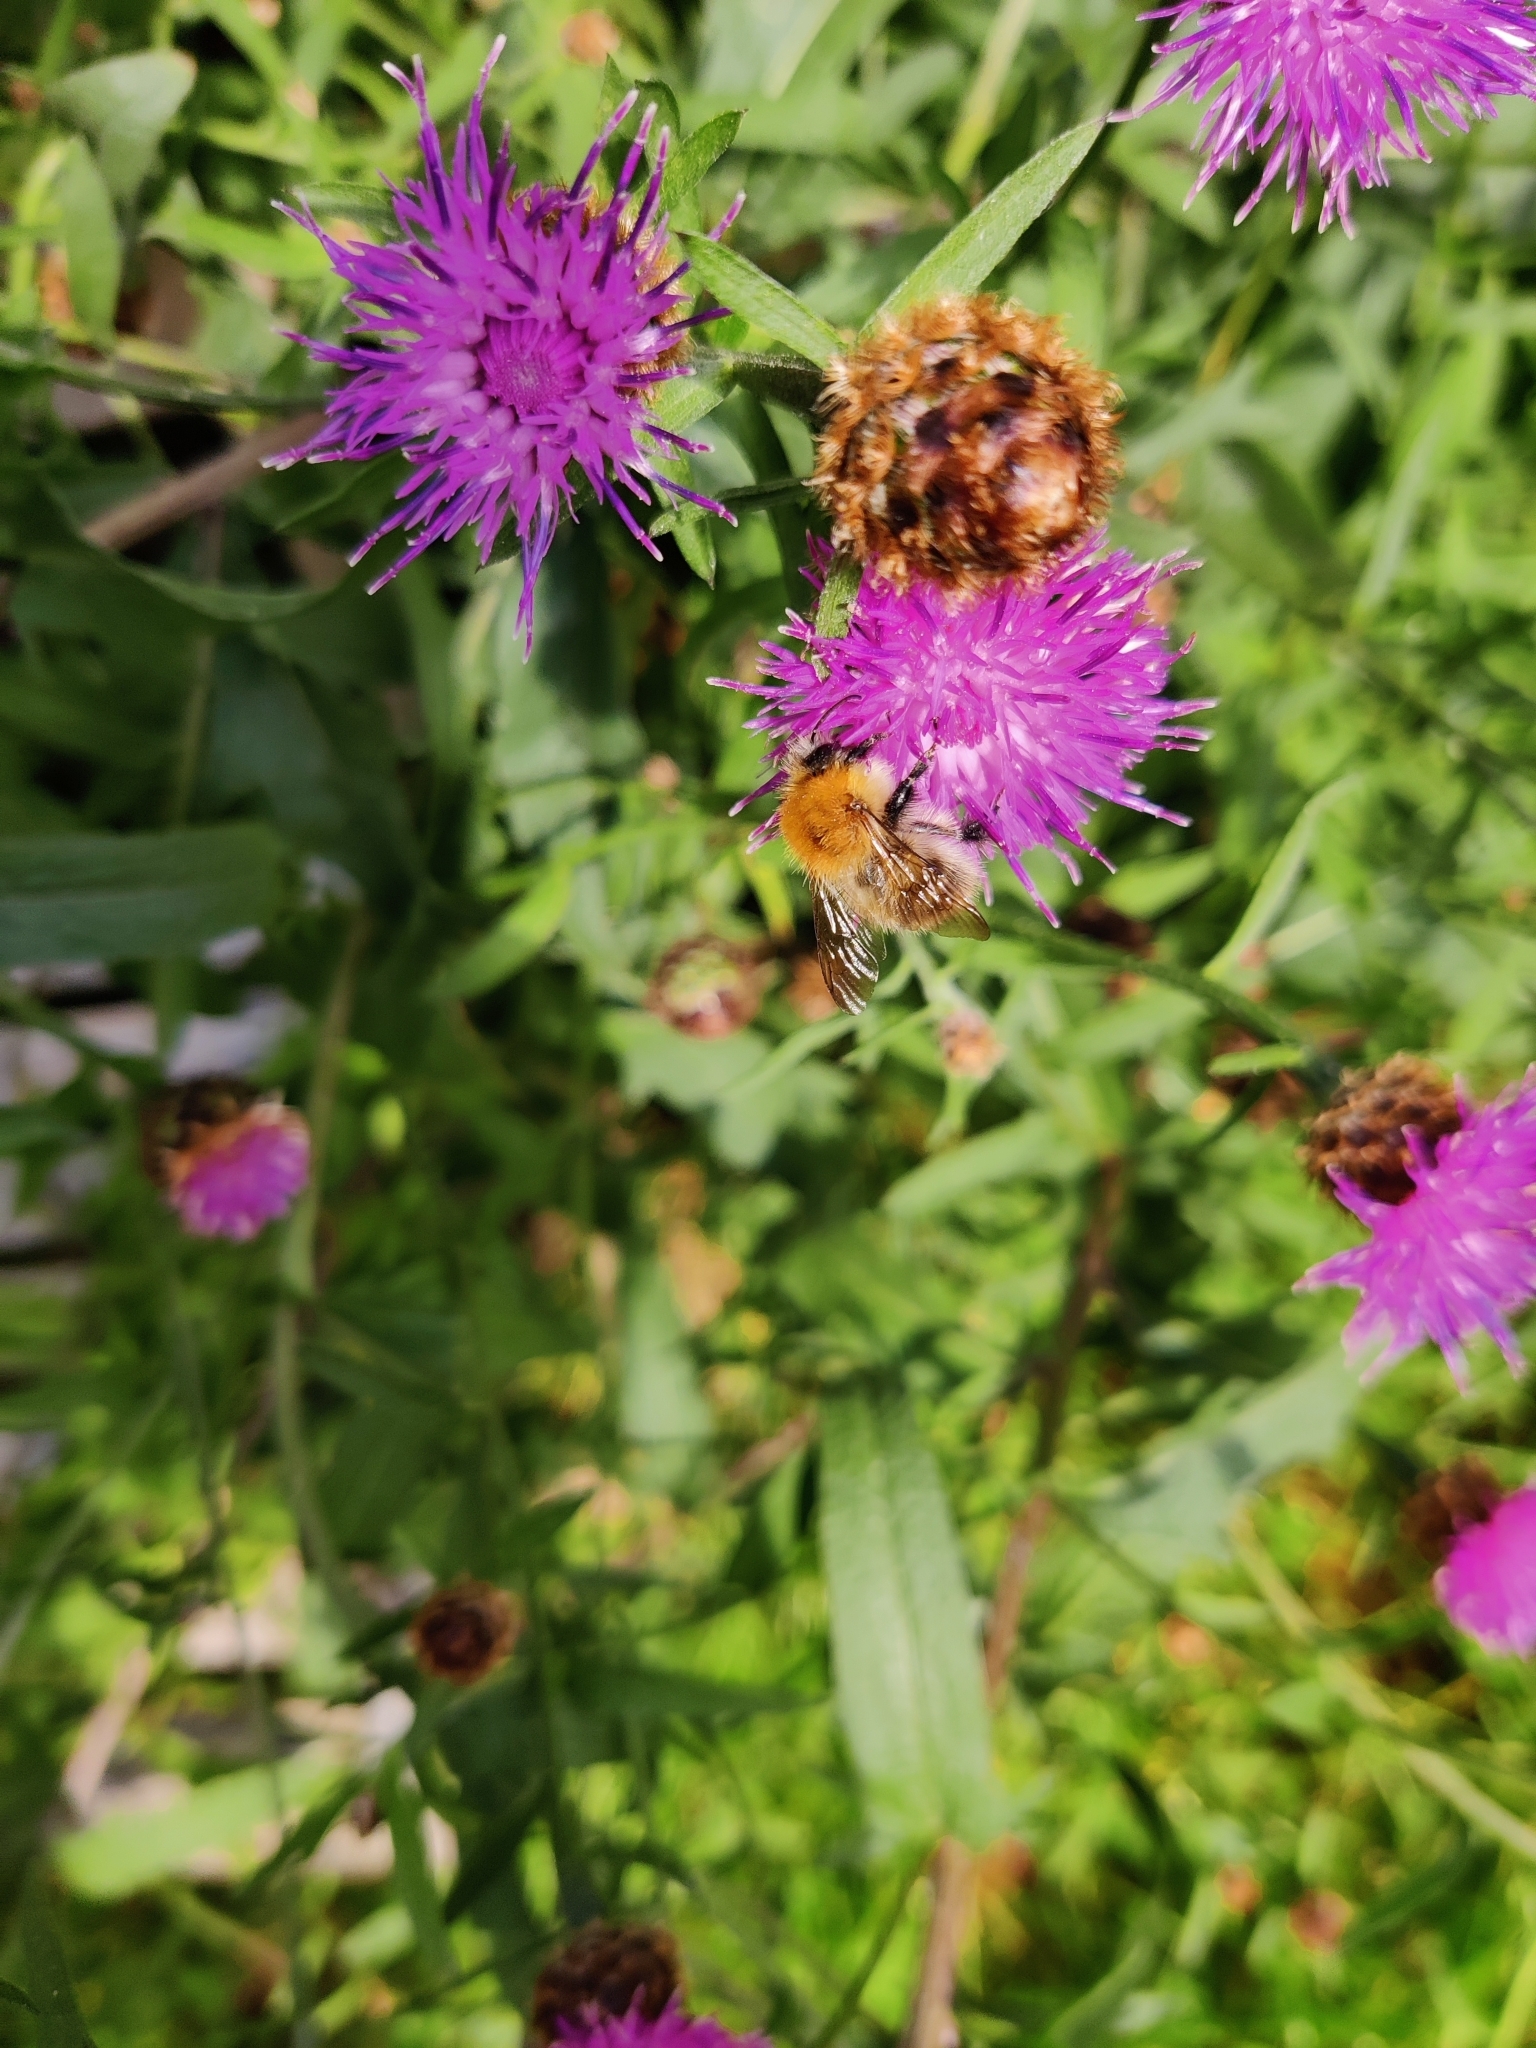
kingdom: Animalia
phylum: Arthropoda
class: Insecta
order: Hymenoptera
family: Apidae
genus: Bombus
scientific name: Bombus pascuorum
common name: Common carder bee
